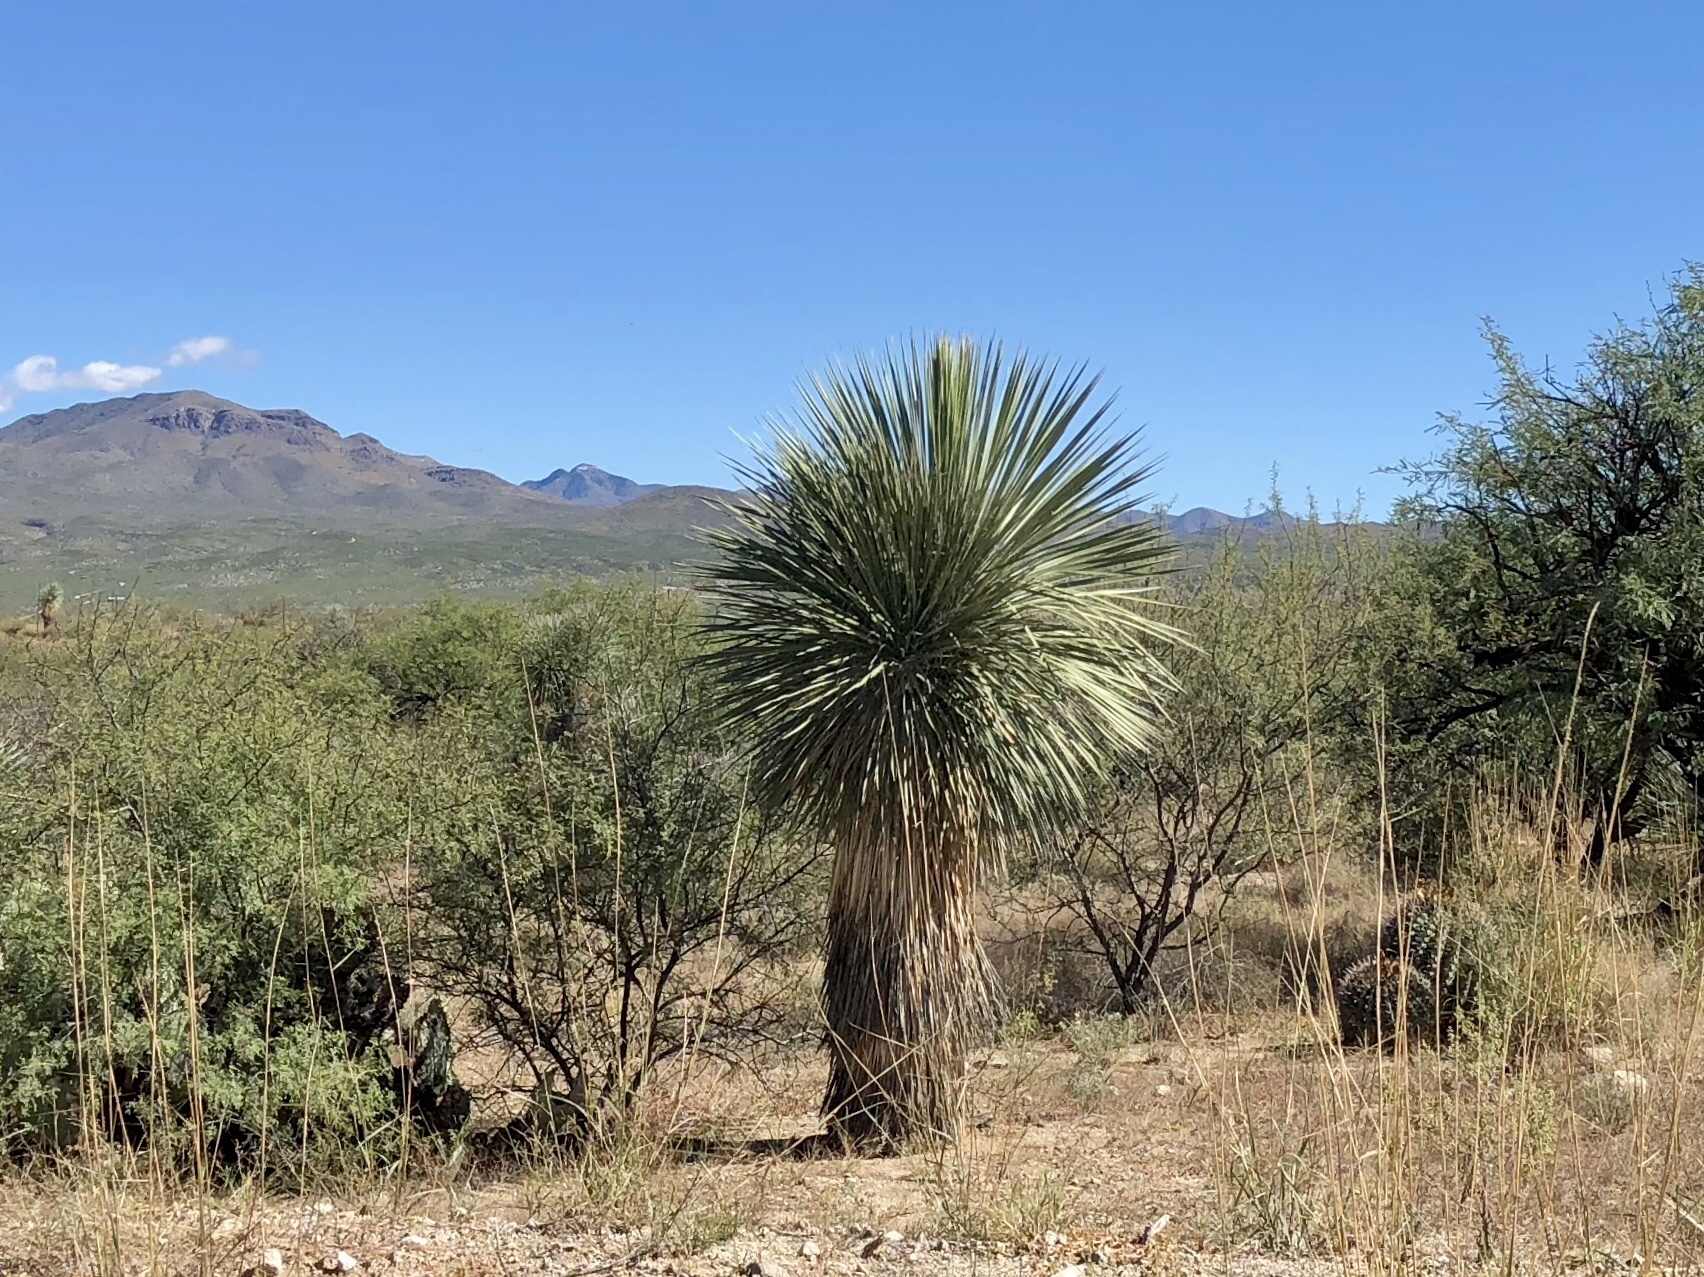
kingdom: Plantae
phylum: Tracheophyta
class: Liliopsida
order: Asparagales
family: Asparagaceae
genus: Yucca
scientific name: Yucca elata
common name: Palmella
